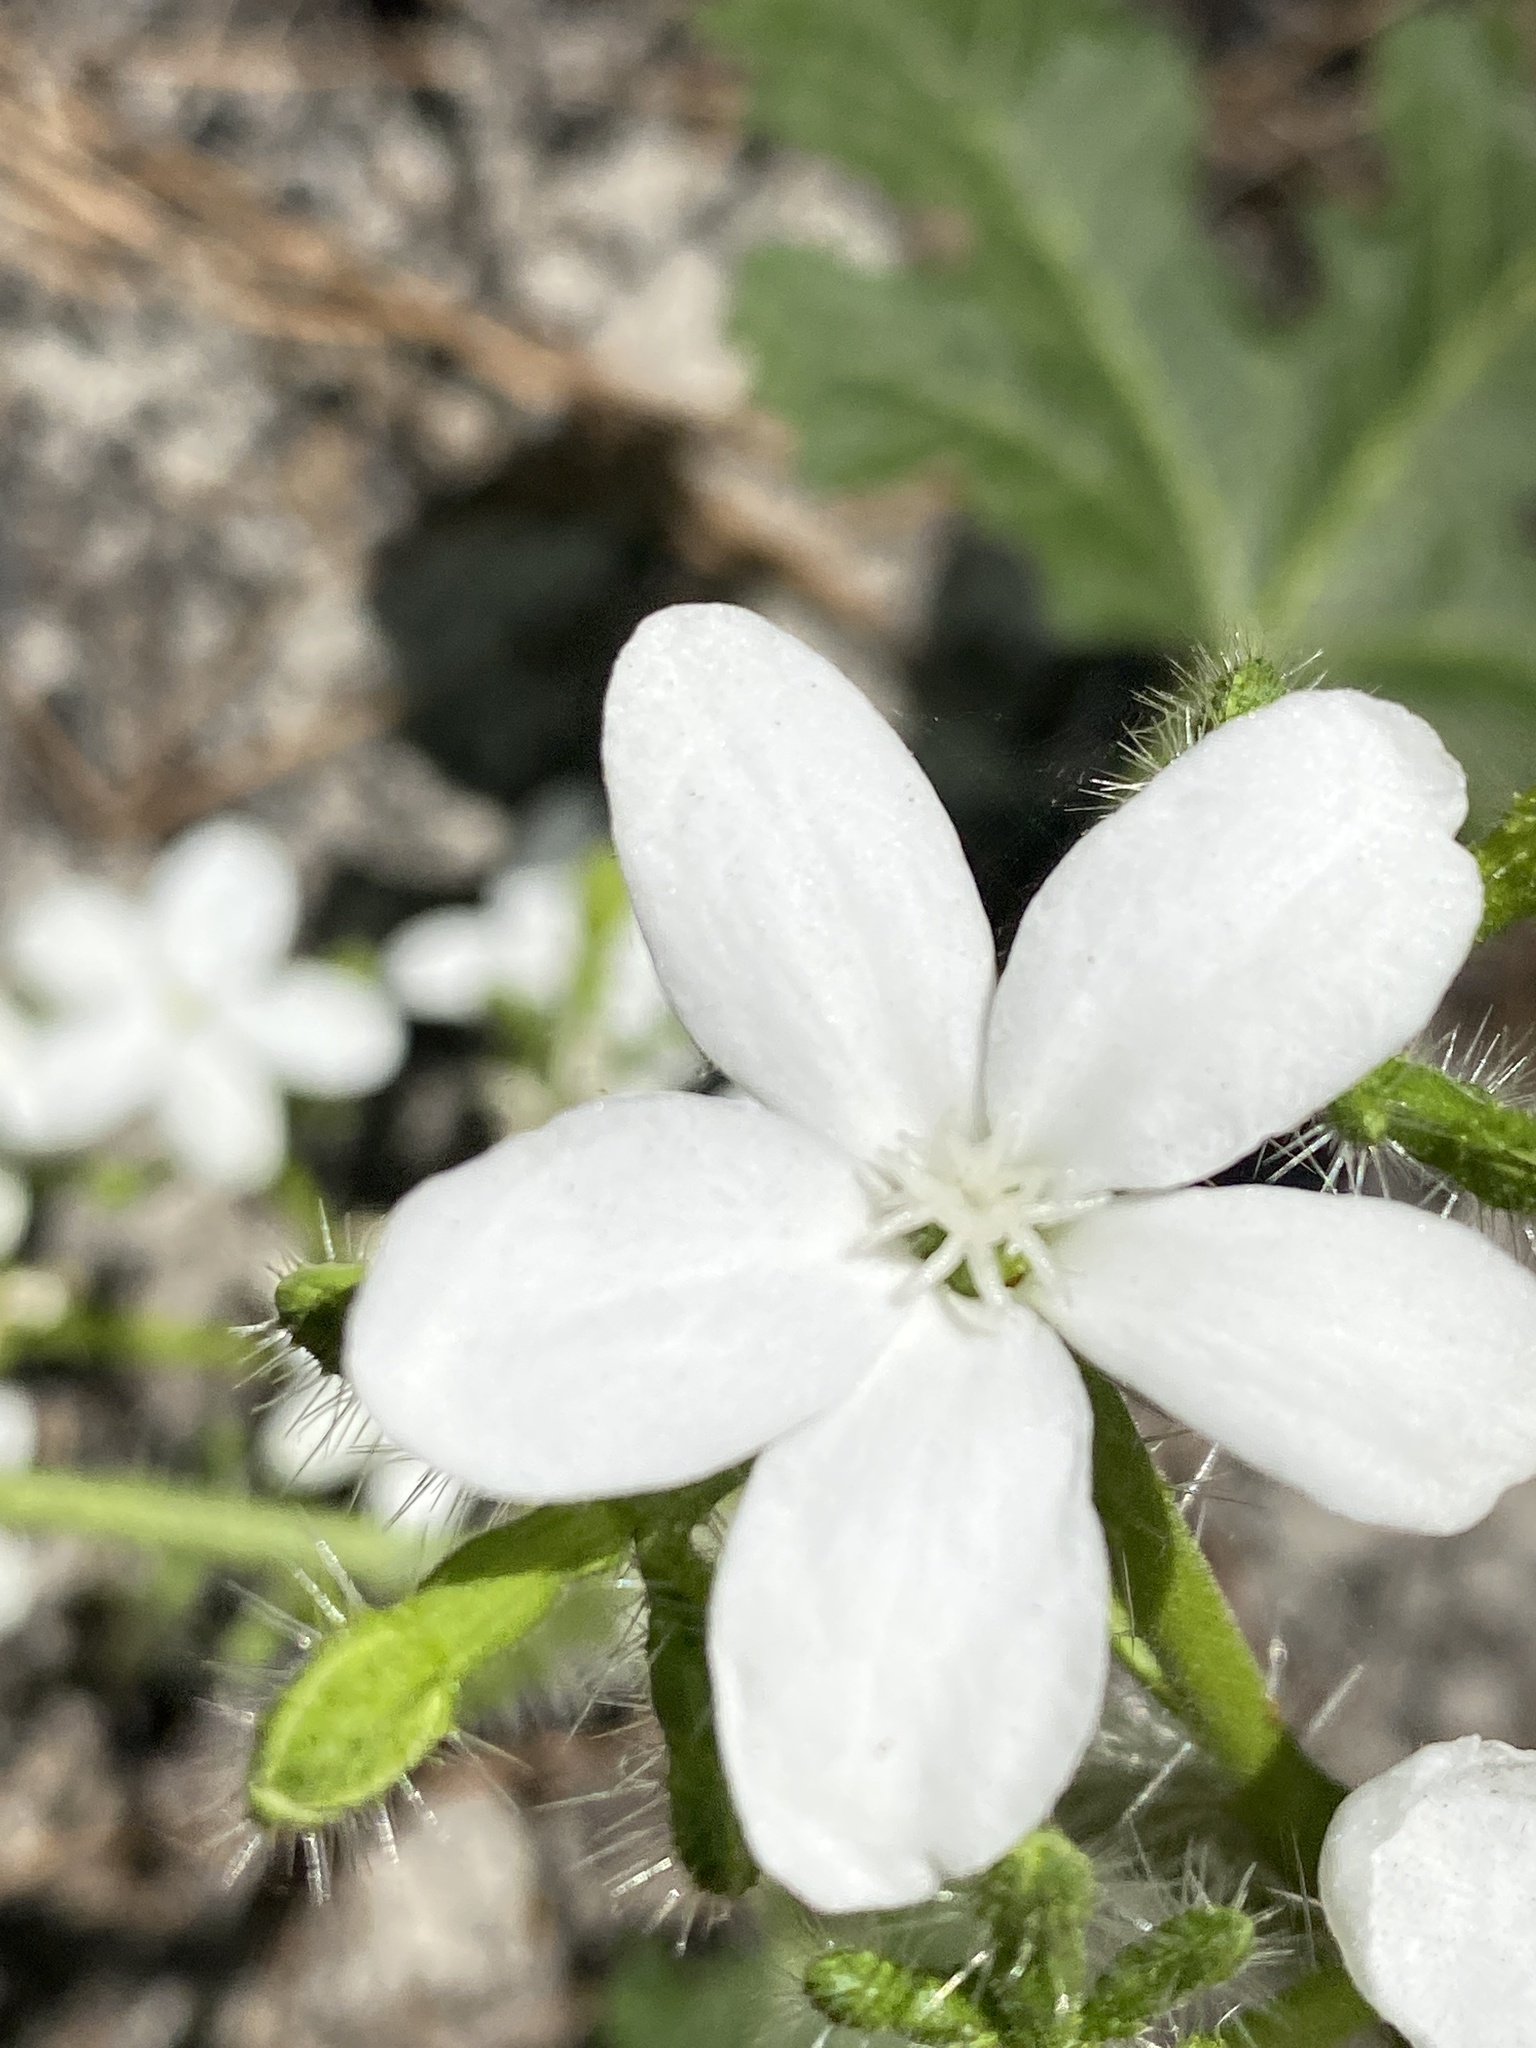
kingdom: Plantae
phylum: Tracheophyta
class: Magnoliopsida
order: Malpighiales
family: Euphorbiaceae
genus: Cnidoscolus
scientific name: Cnidoscolus stimulosus
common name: Bull-nettle
